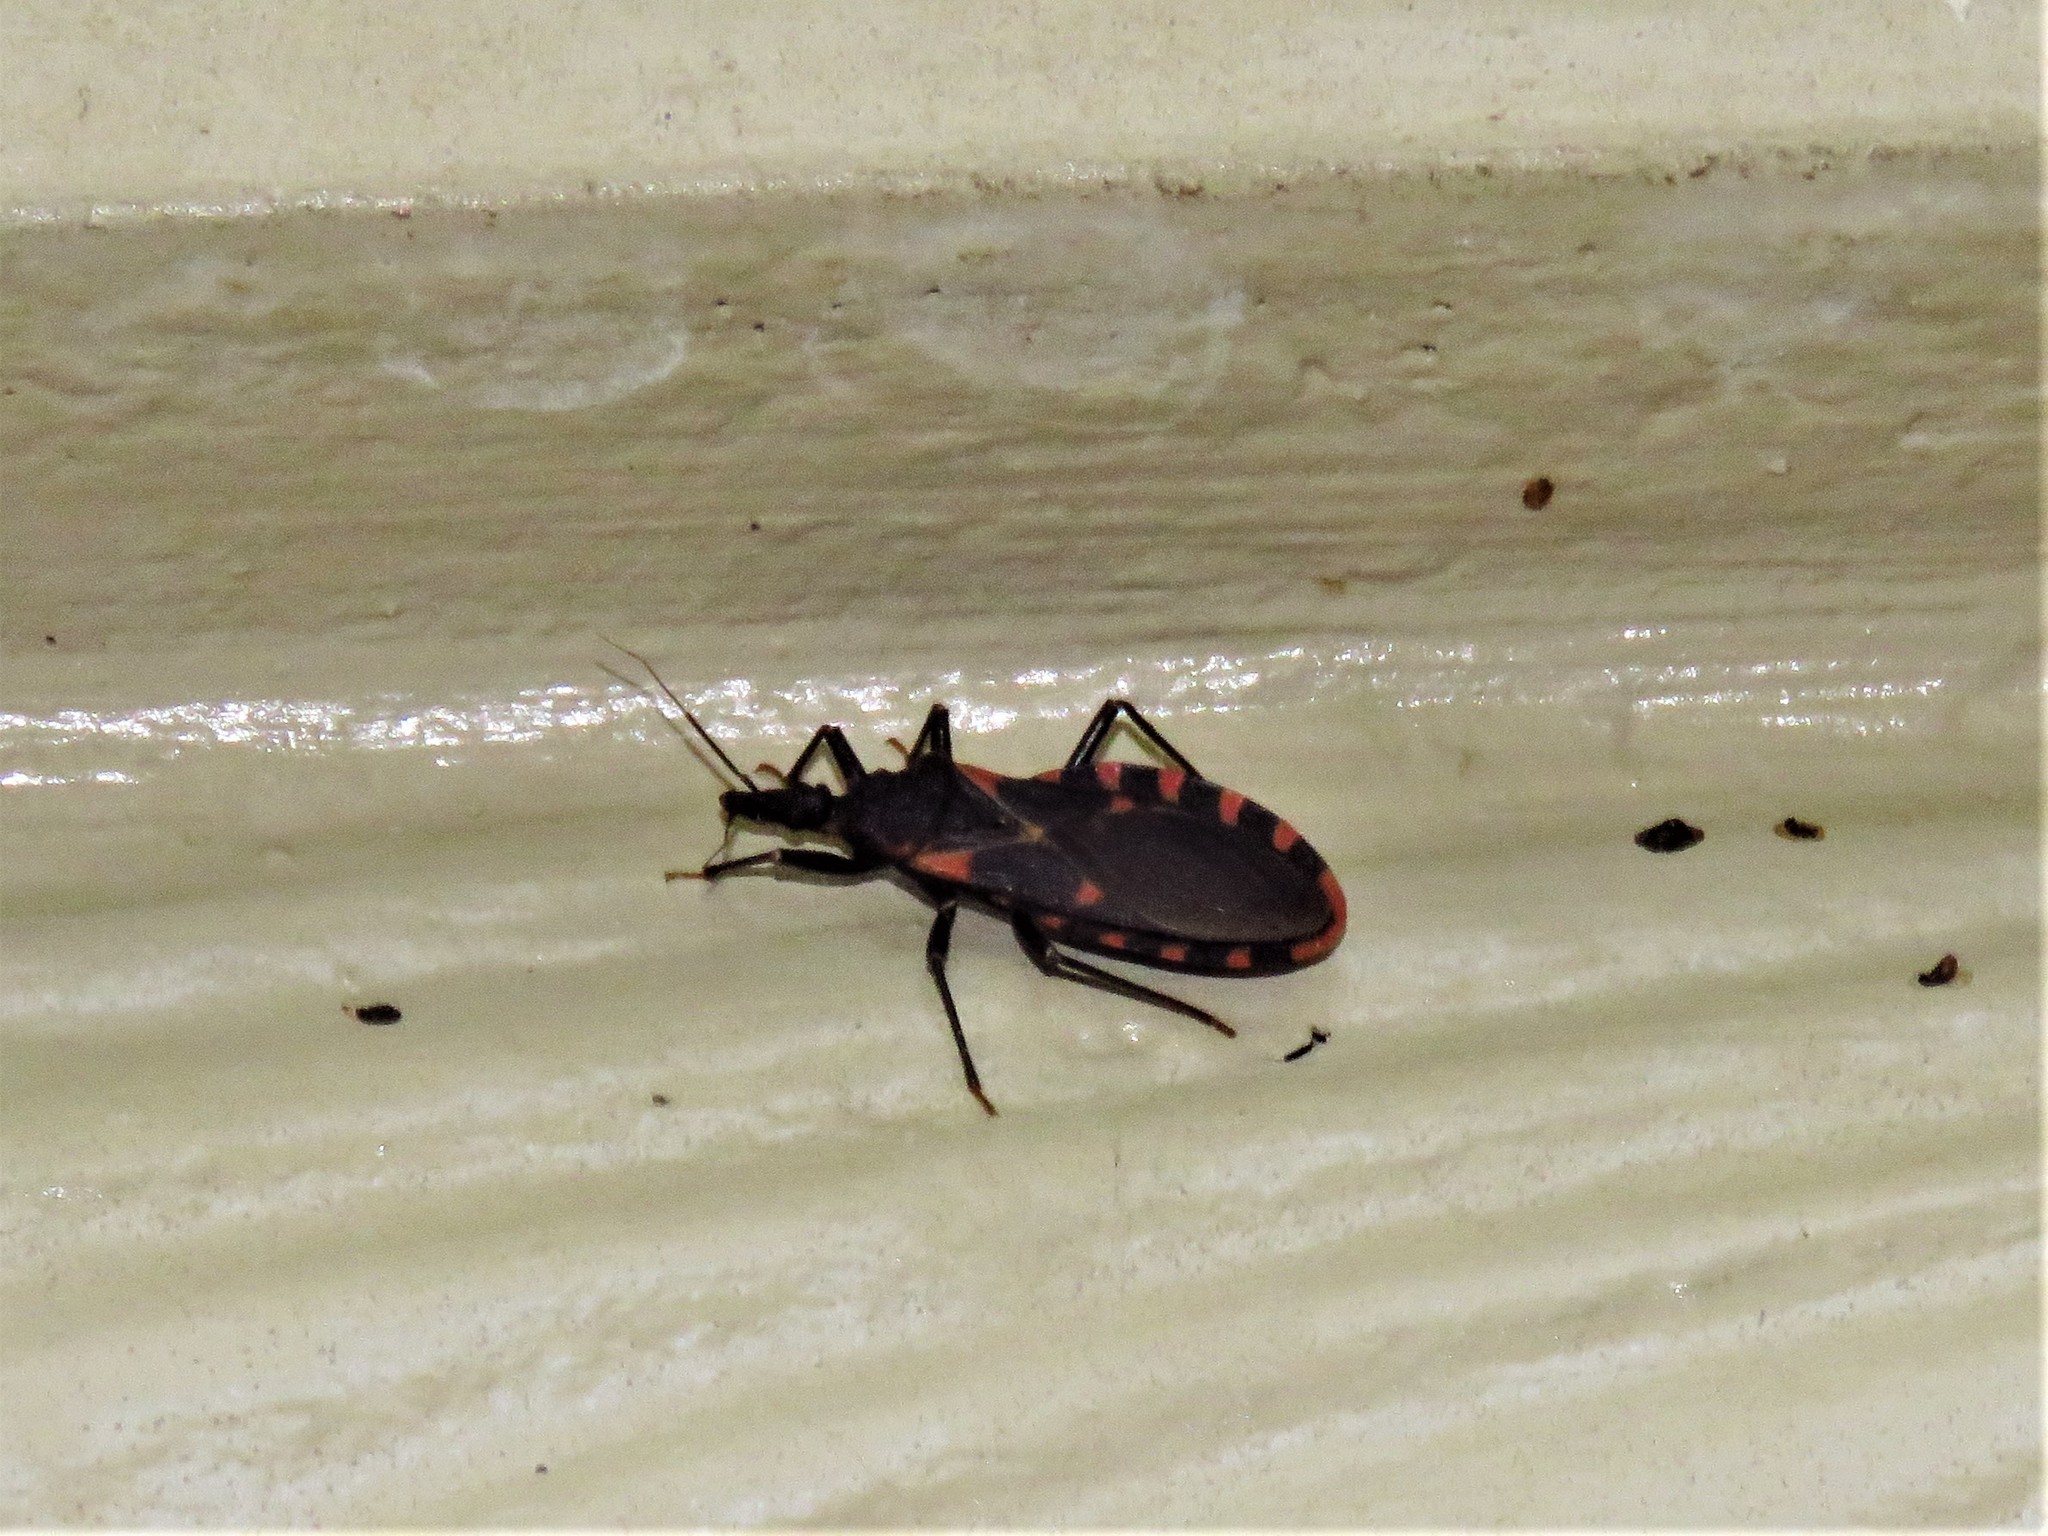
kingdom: Animalia
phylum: Arthropoda
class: Insecta
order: Hemiptera
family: Reduviidae
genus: Triatoma
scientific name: Triatoma sanguisuga
